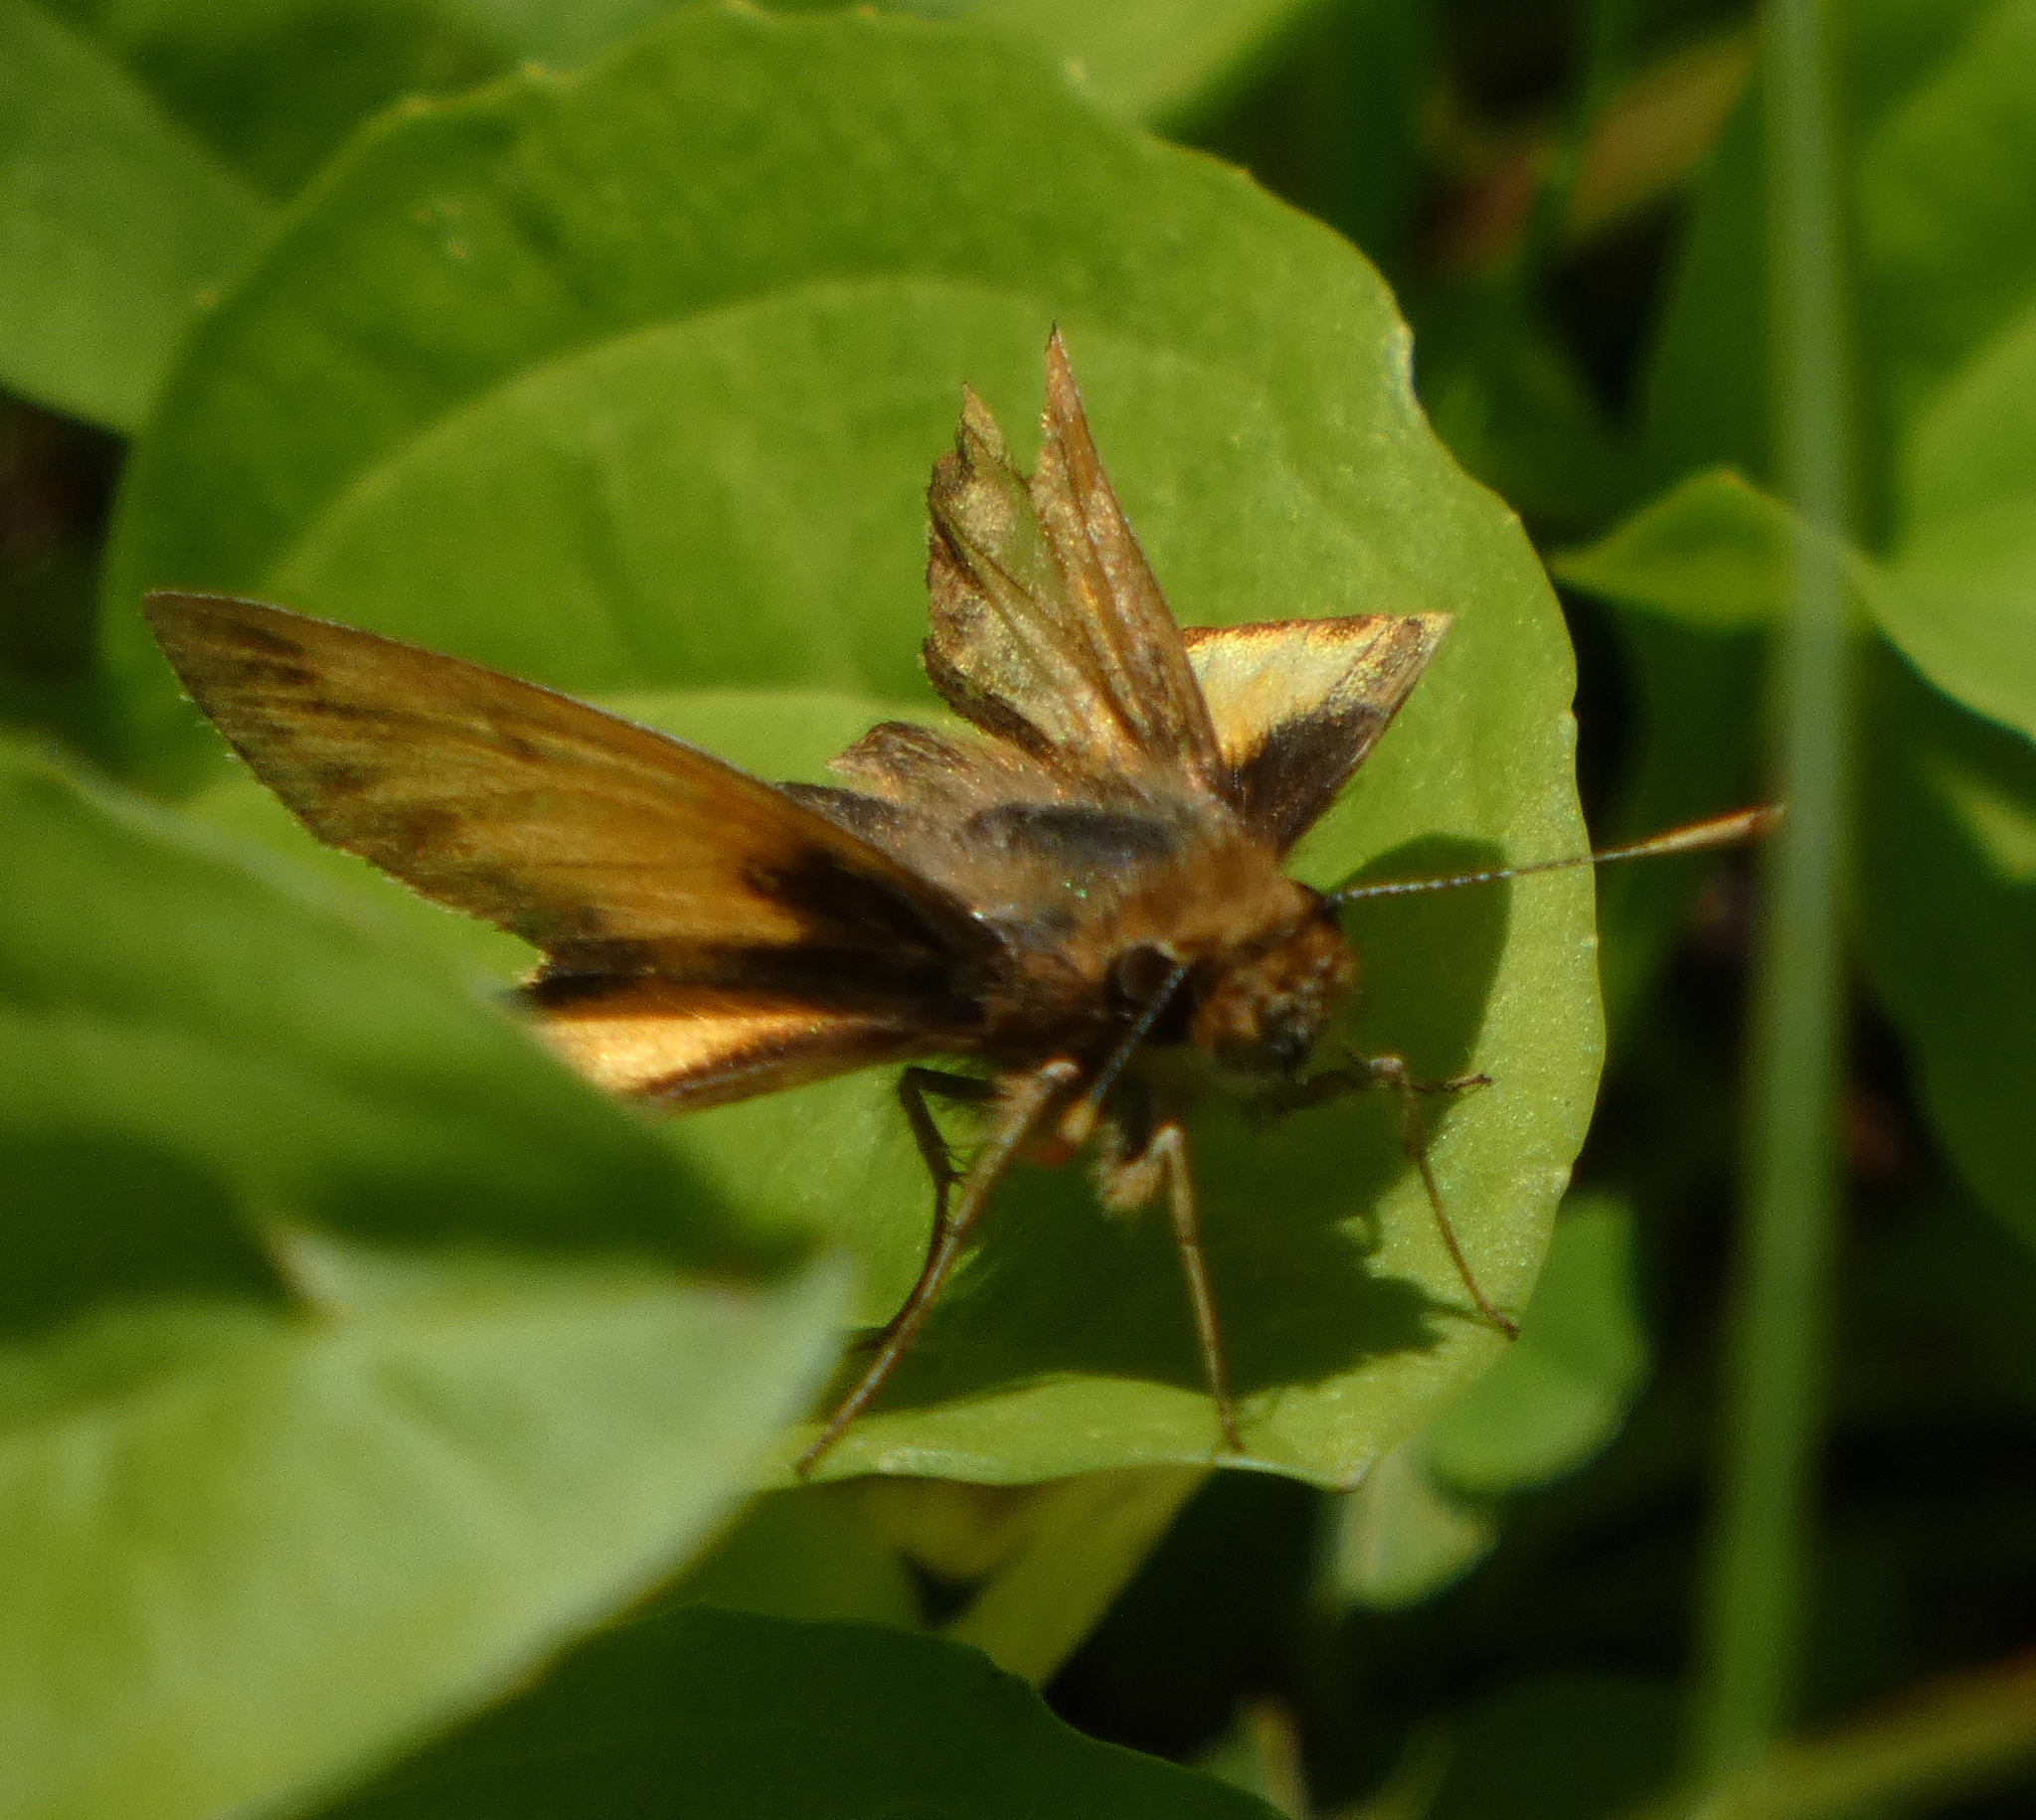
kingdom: Animalia
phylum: Arthropoda
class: Insecta
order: Lepidoptera
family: Hesperiidae
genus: Lon
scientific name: Lon zabulon
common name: Zabulon skipper
